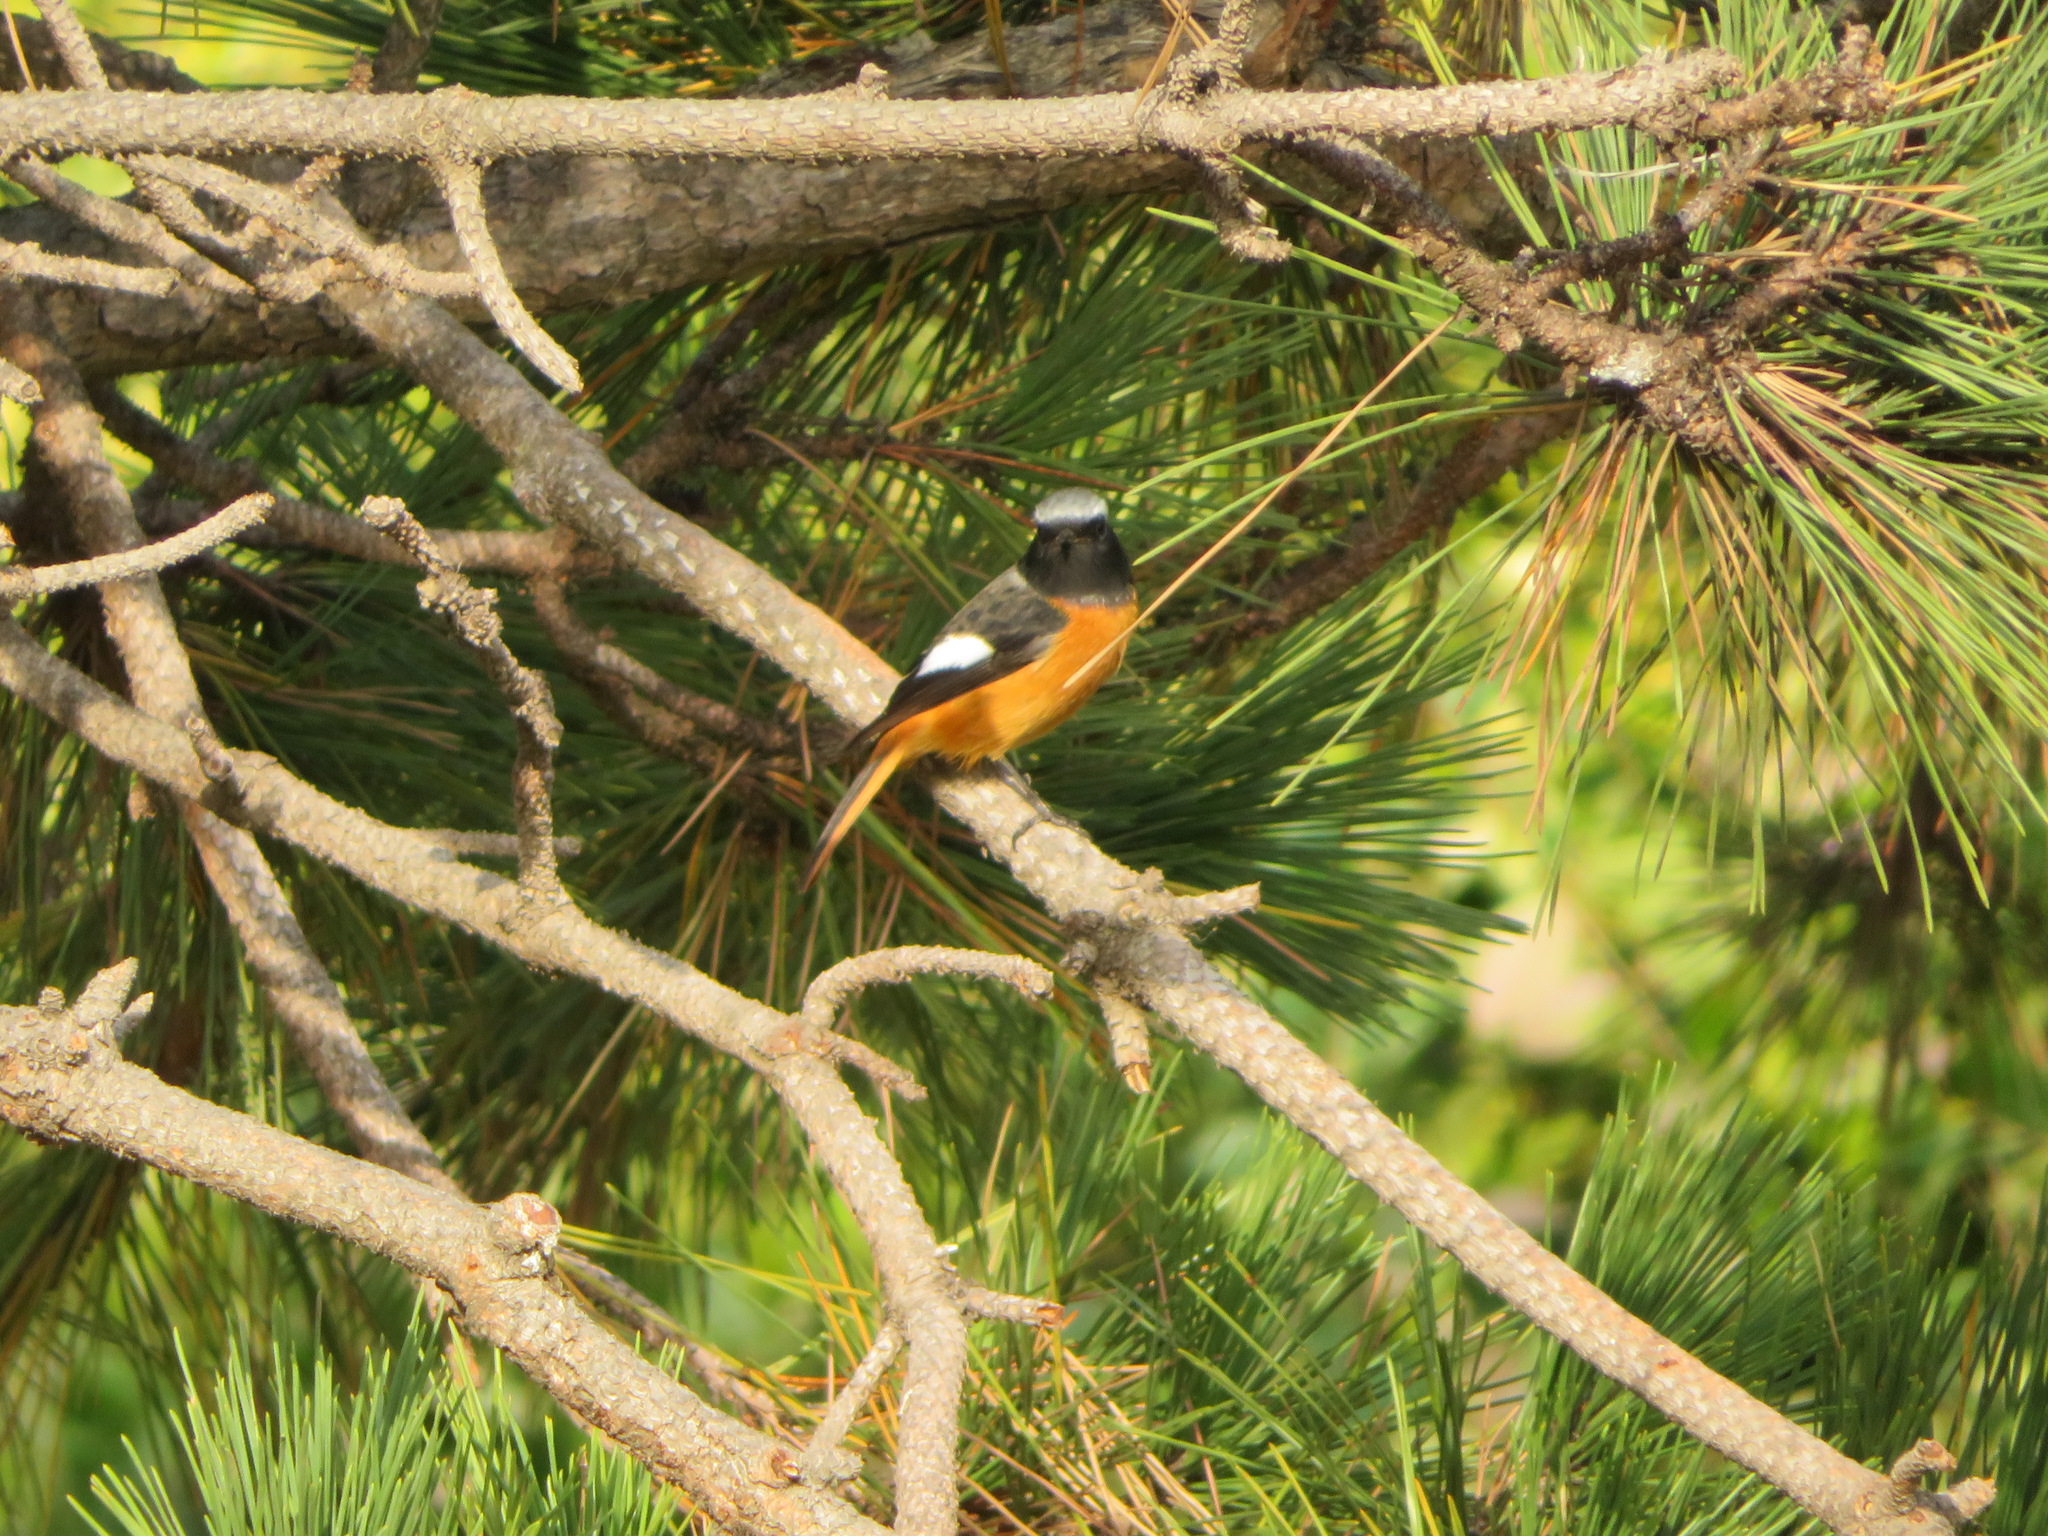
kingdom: Animalia
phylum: Chordata
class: Aves
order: Passeriformes
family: Muscicapidae
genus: Phoenicurus
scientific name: Phoenicurus auroreus
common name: Daurian redstart
